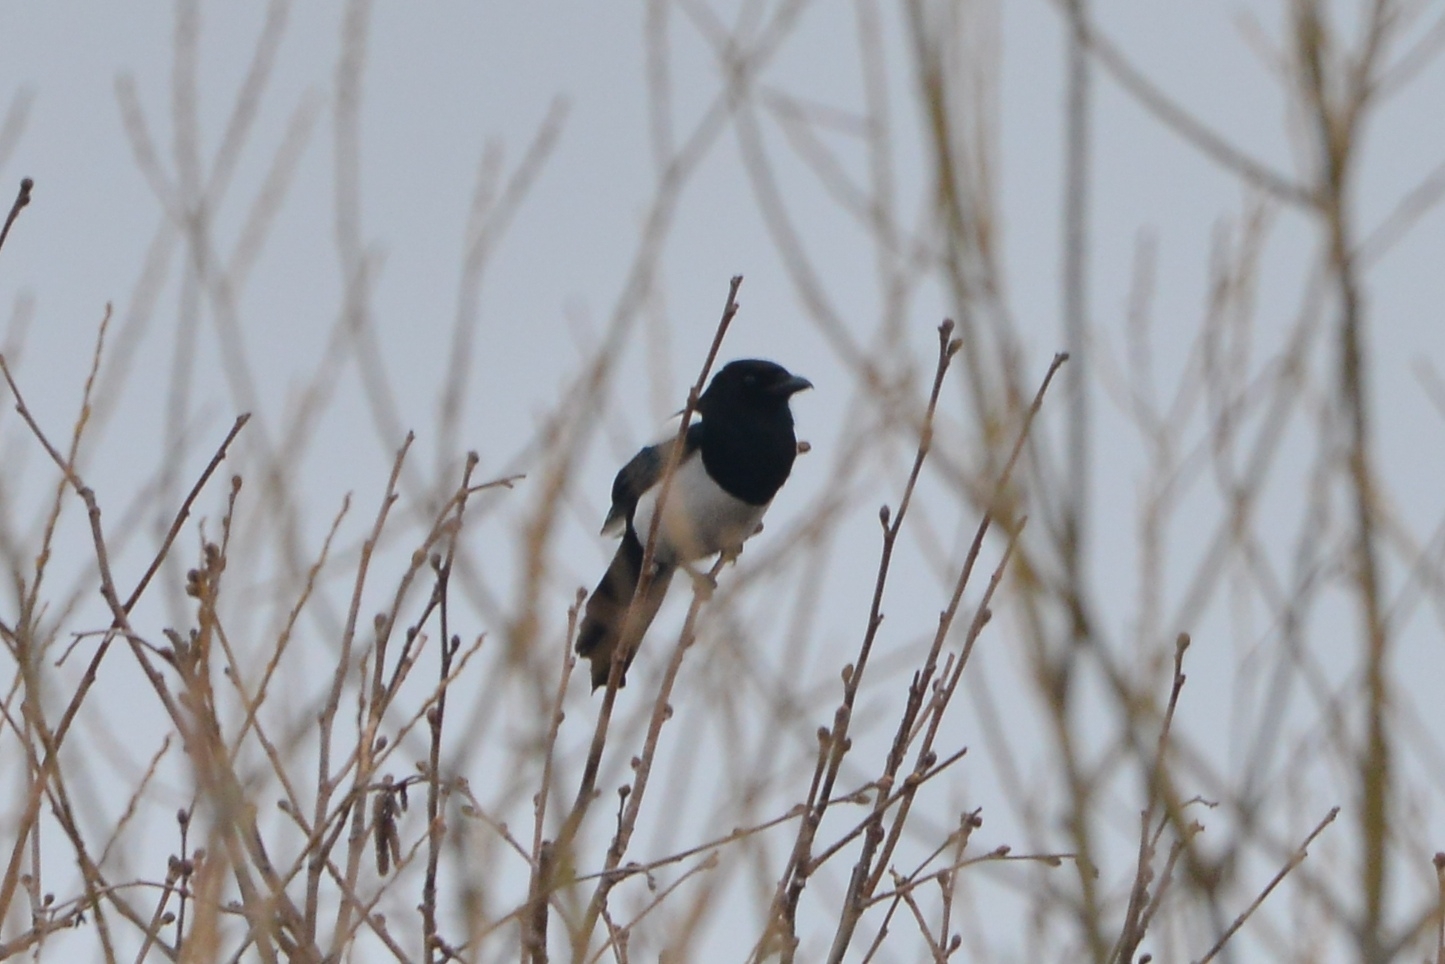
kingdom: Animalia
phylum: Chordata
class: Aves
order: Passeriformes
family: Corvidae
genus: Pica
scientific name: Pica pica
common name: Eurasian magpie
